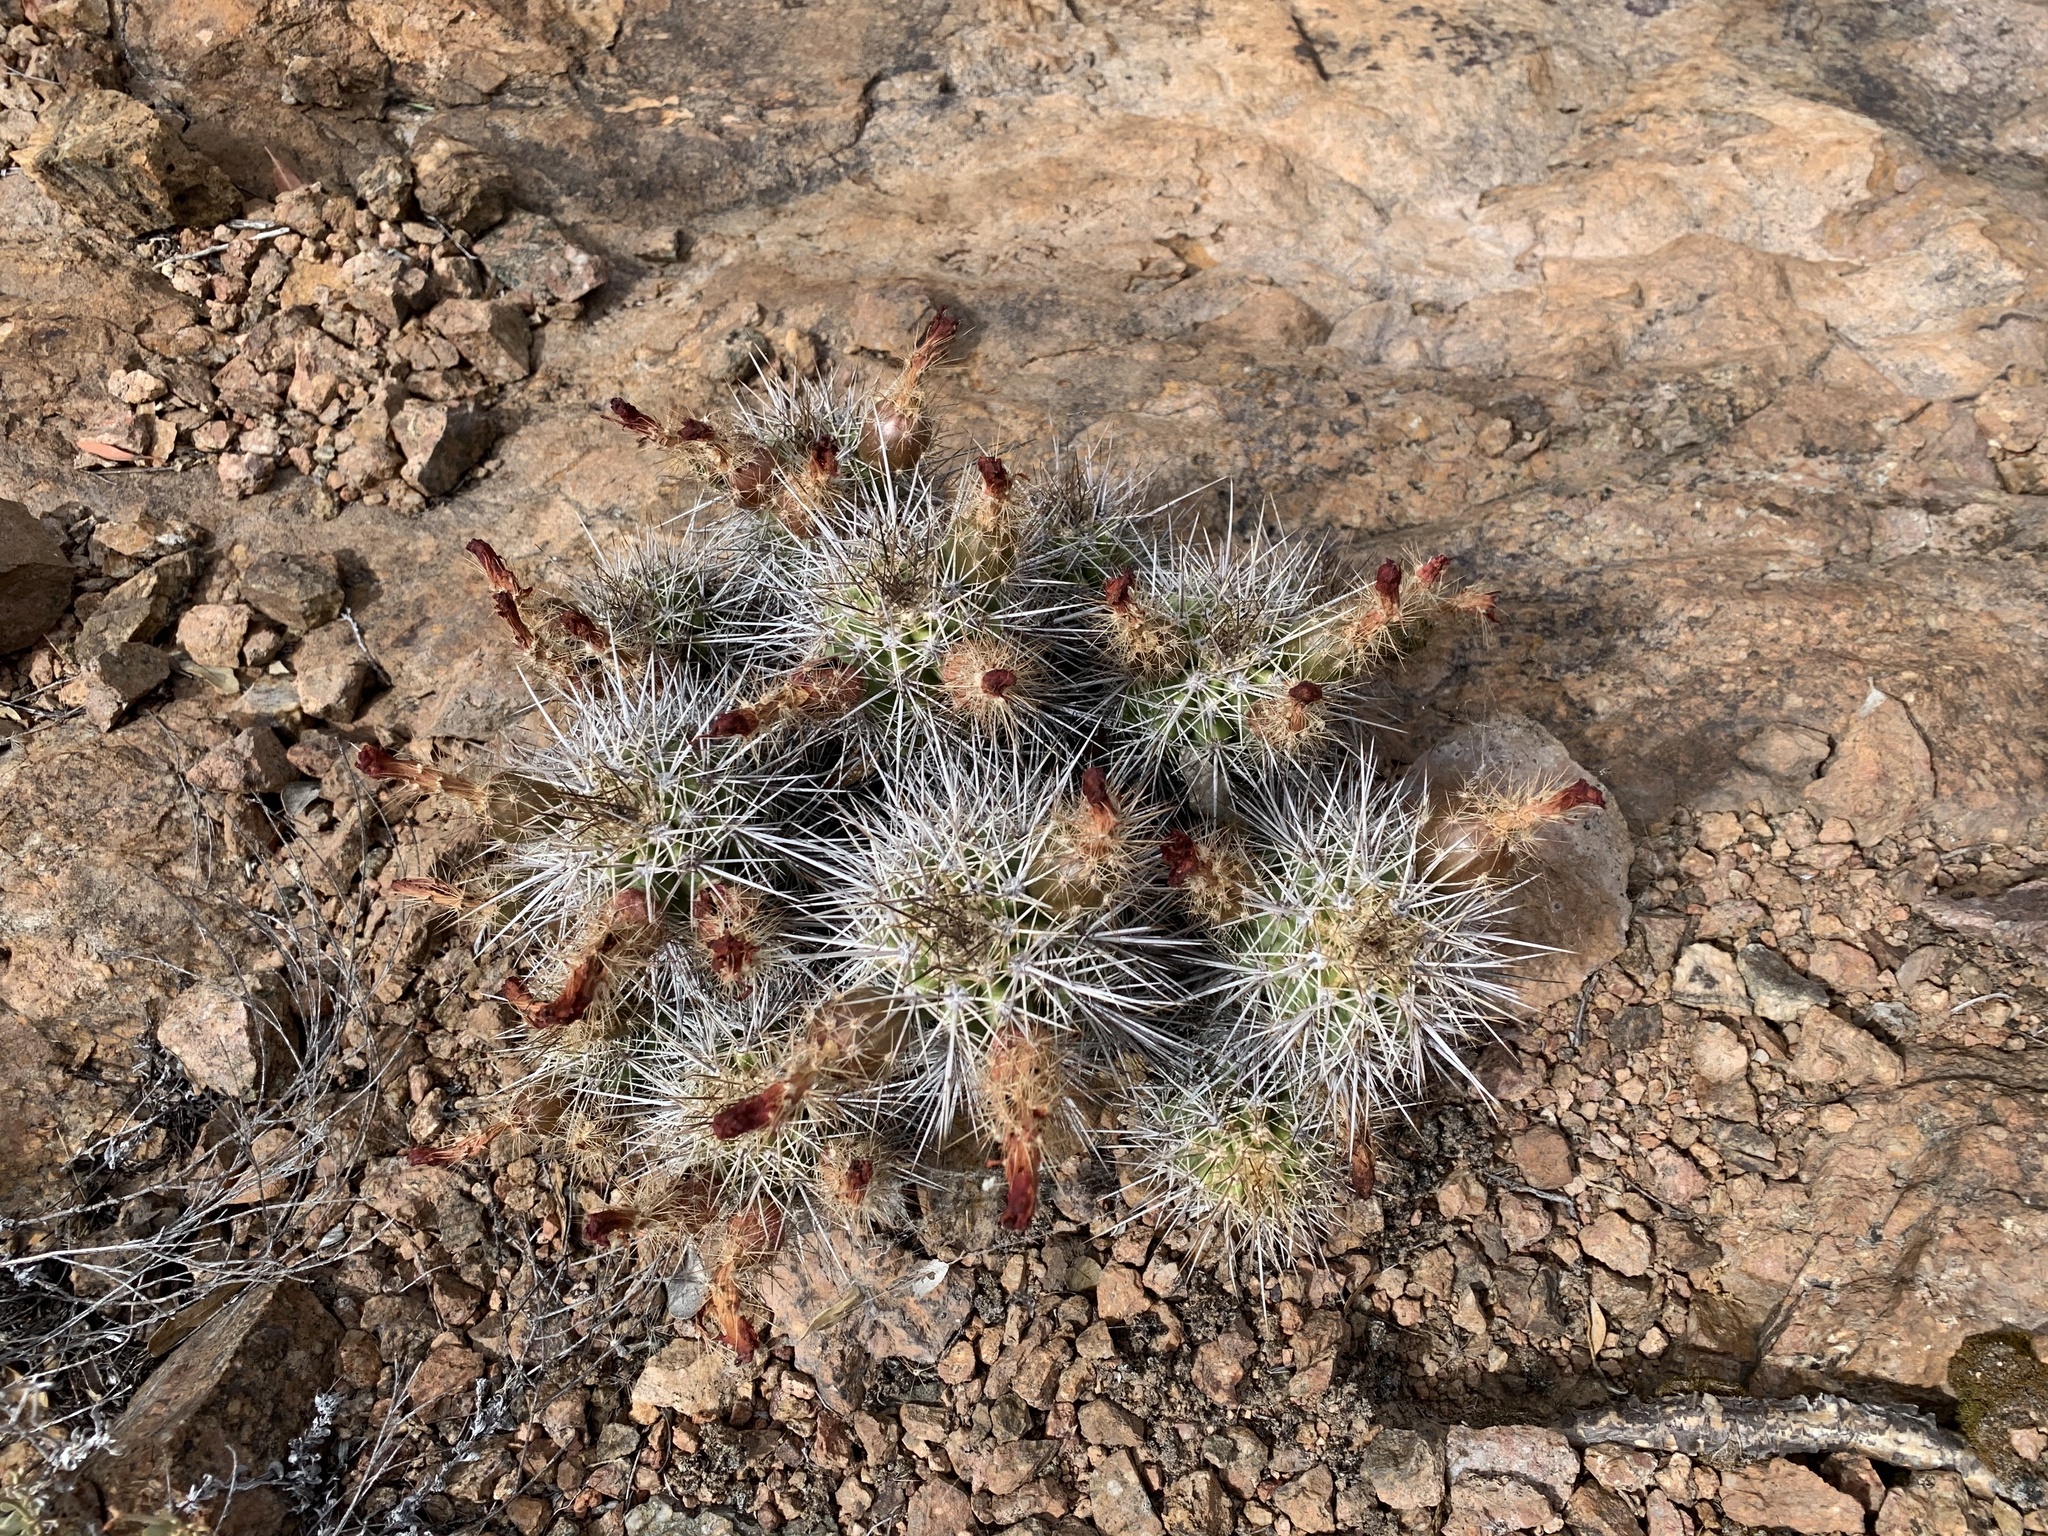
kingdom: Plantae
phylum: Tracheophyta
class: Magnoliopsida
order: Caryophyllales
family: Cactaceae
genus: Echinocereus
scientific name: Echinocereus coccineus
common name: Scarlet hedgehog cactus
